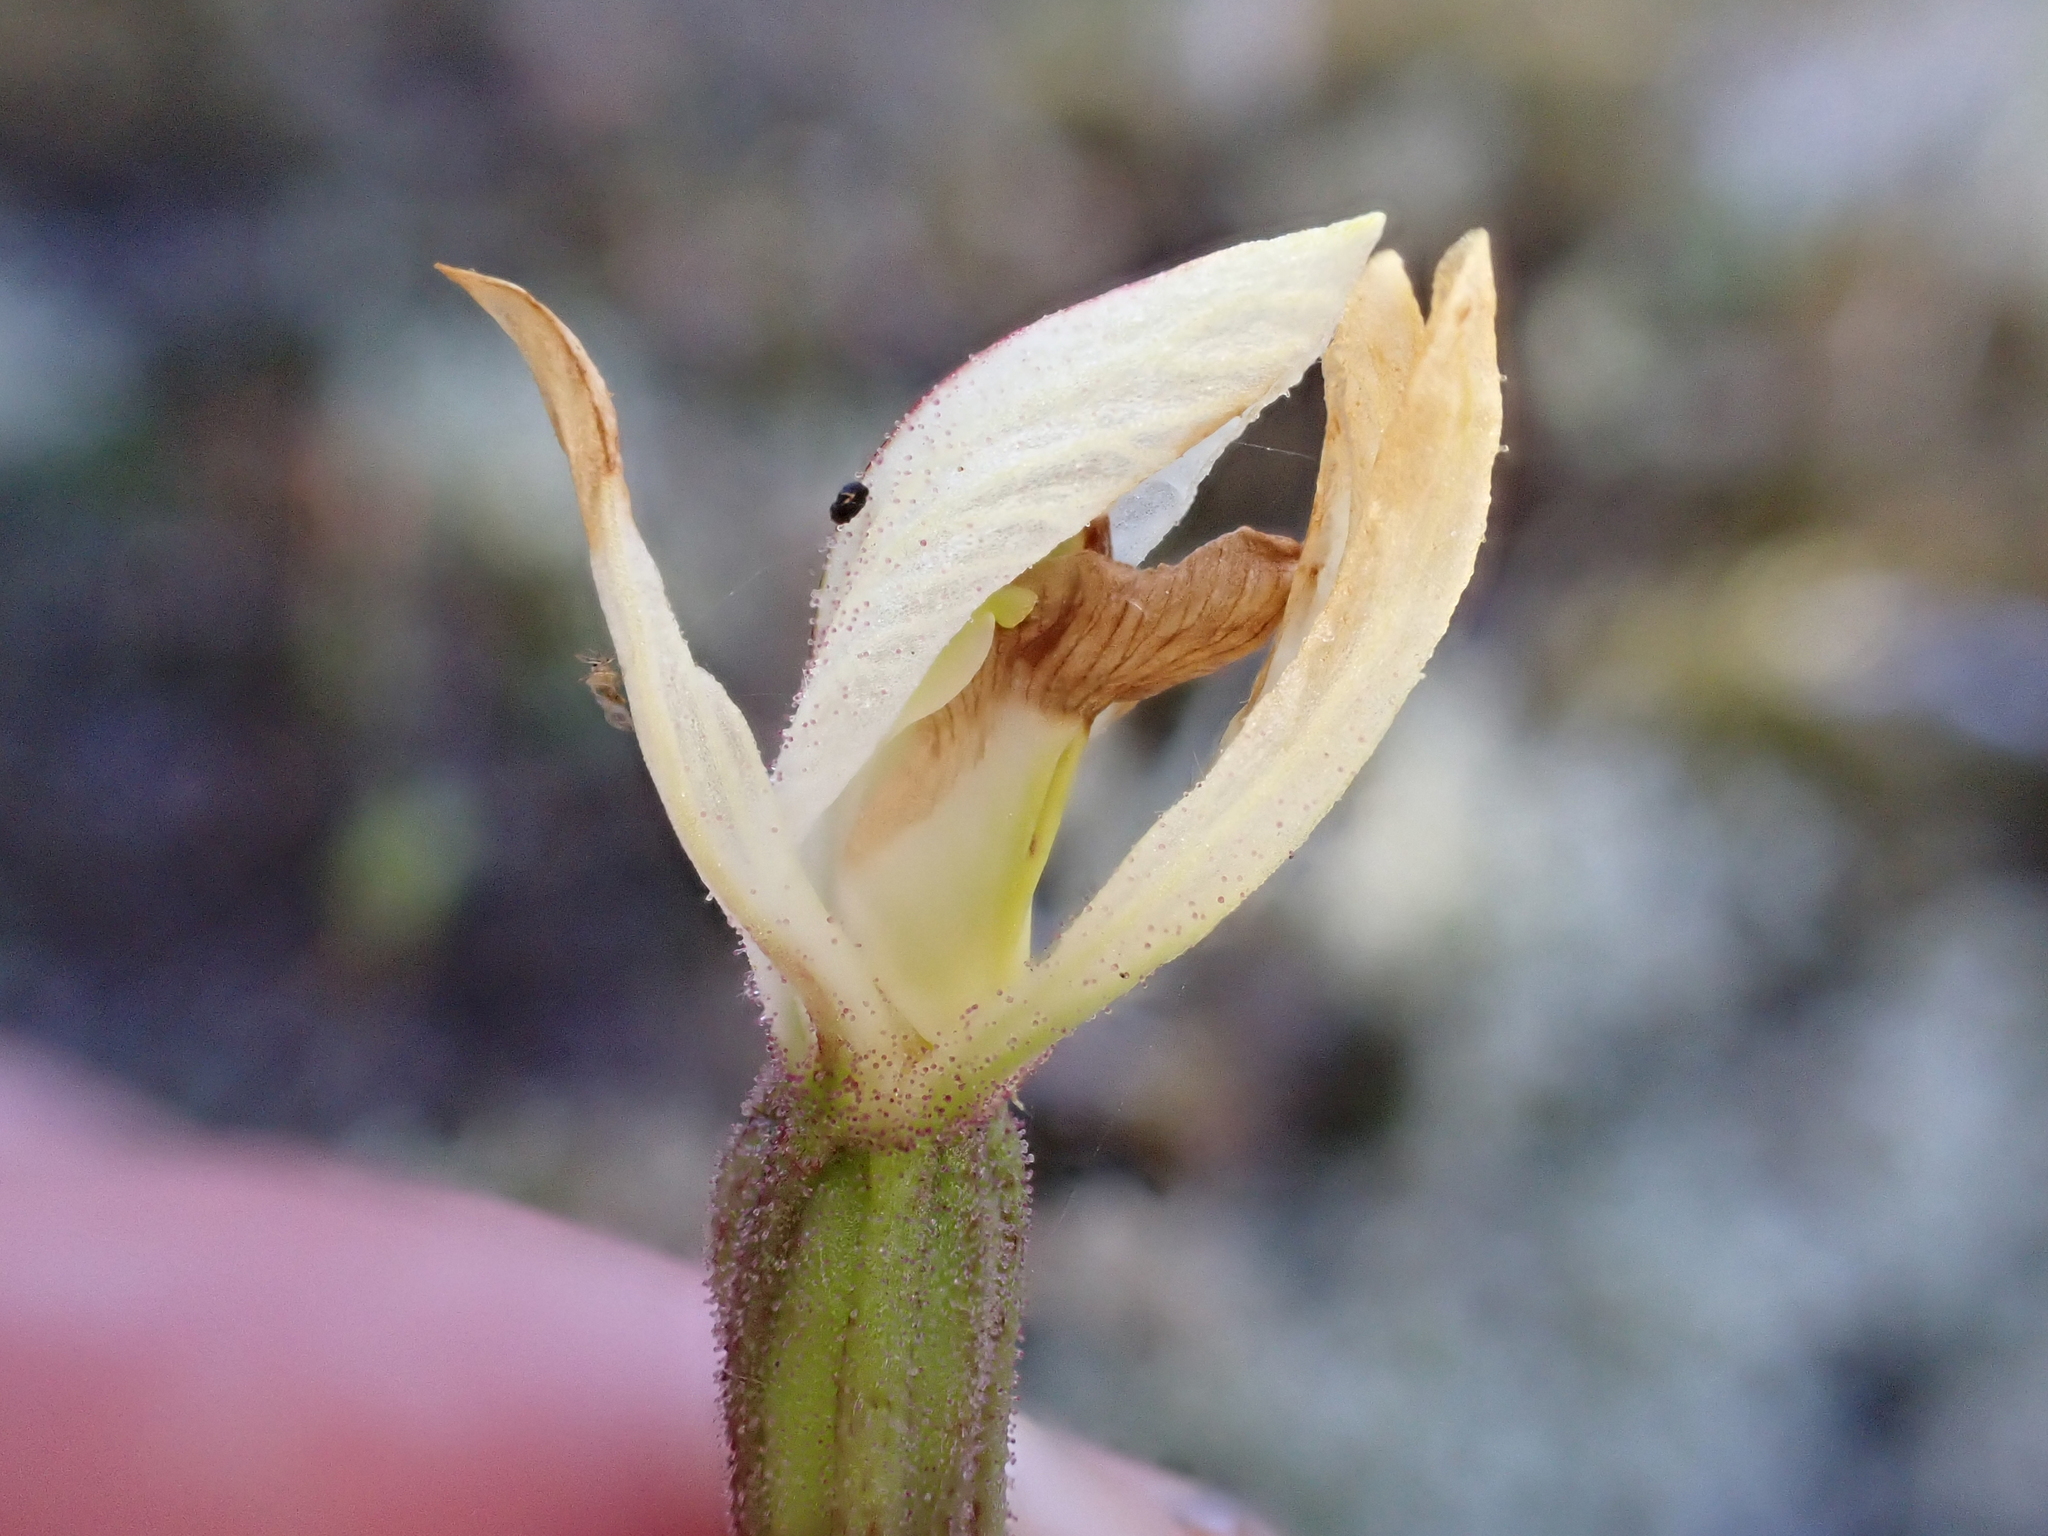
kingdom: Plantae
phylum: Tracheophyta
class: Liliopsida
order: Asparagales
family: Orchidaceae
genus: Aporostylis
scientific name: Aporostylis bifolia
